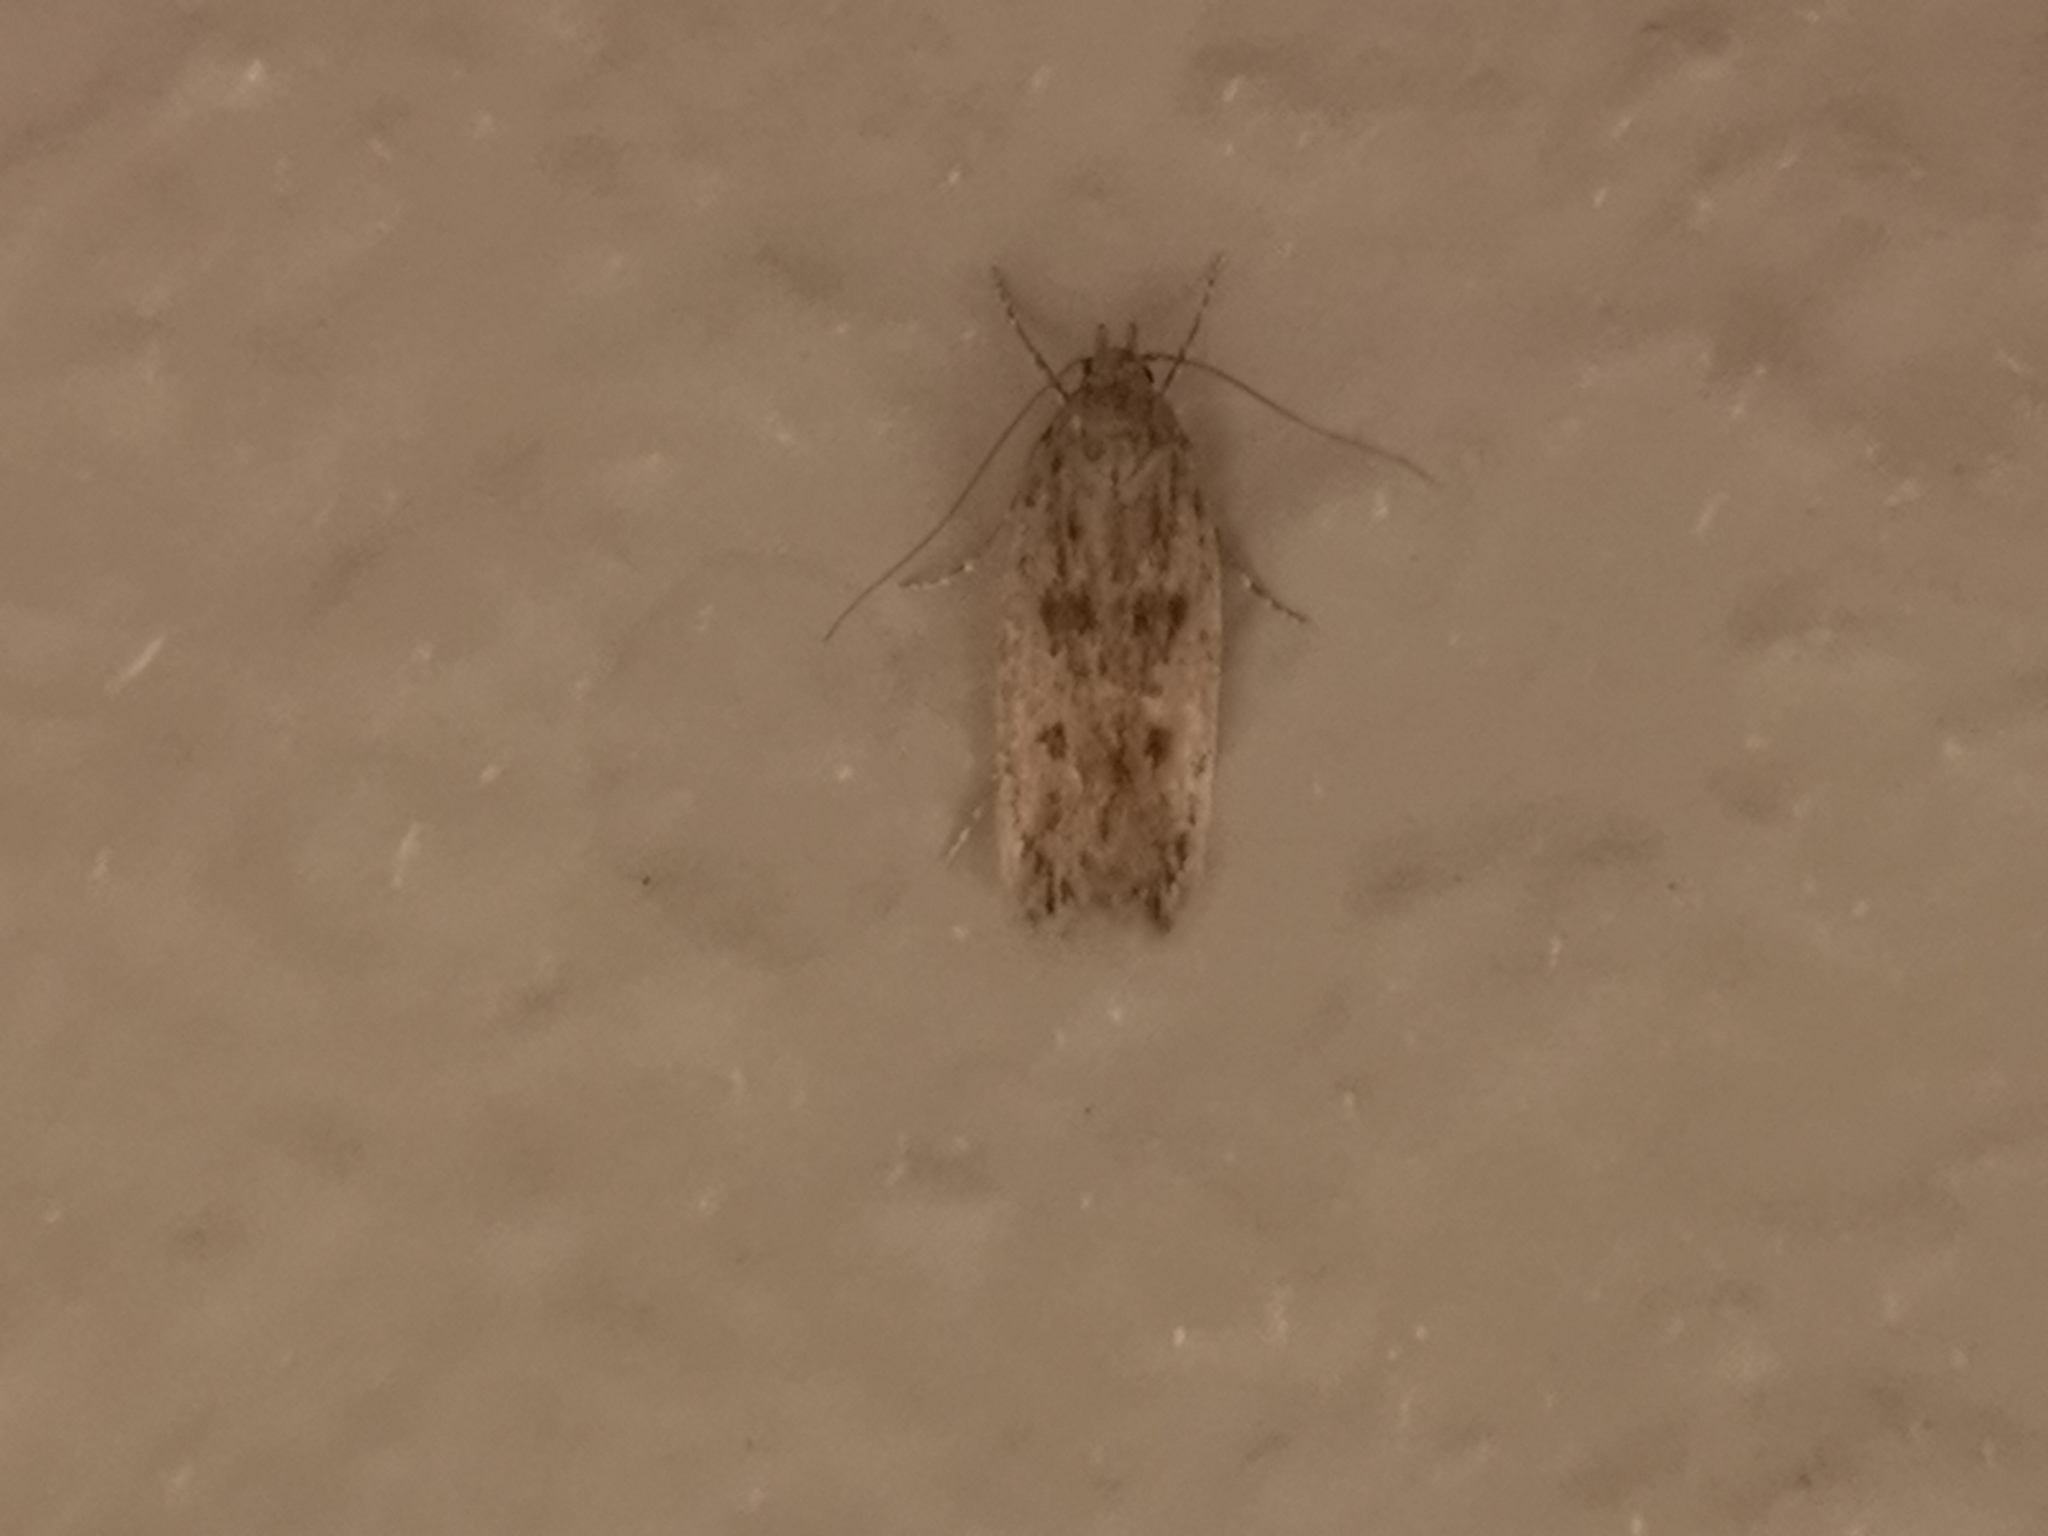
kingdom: Animalia
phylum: Arthropoda
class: Insecta
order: Lepidoptera
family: Oecophoridae
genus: Hofmannophila
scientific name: Hofmannophila pseudospretella
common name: Brown house moth
